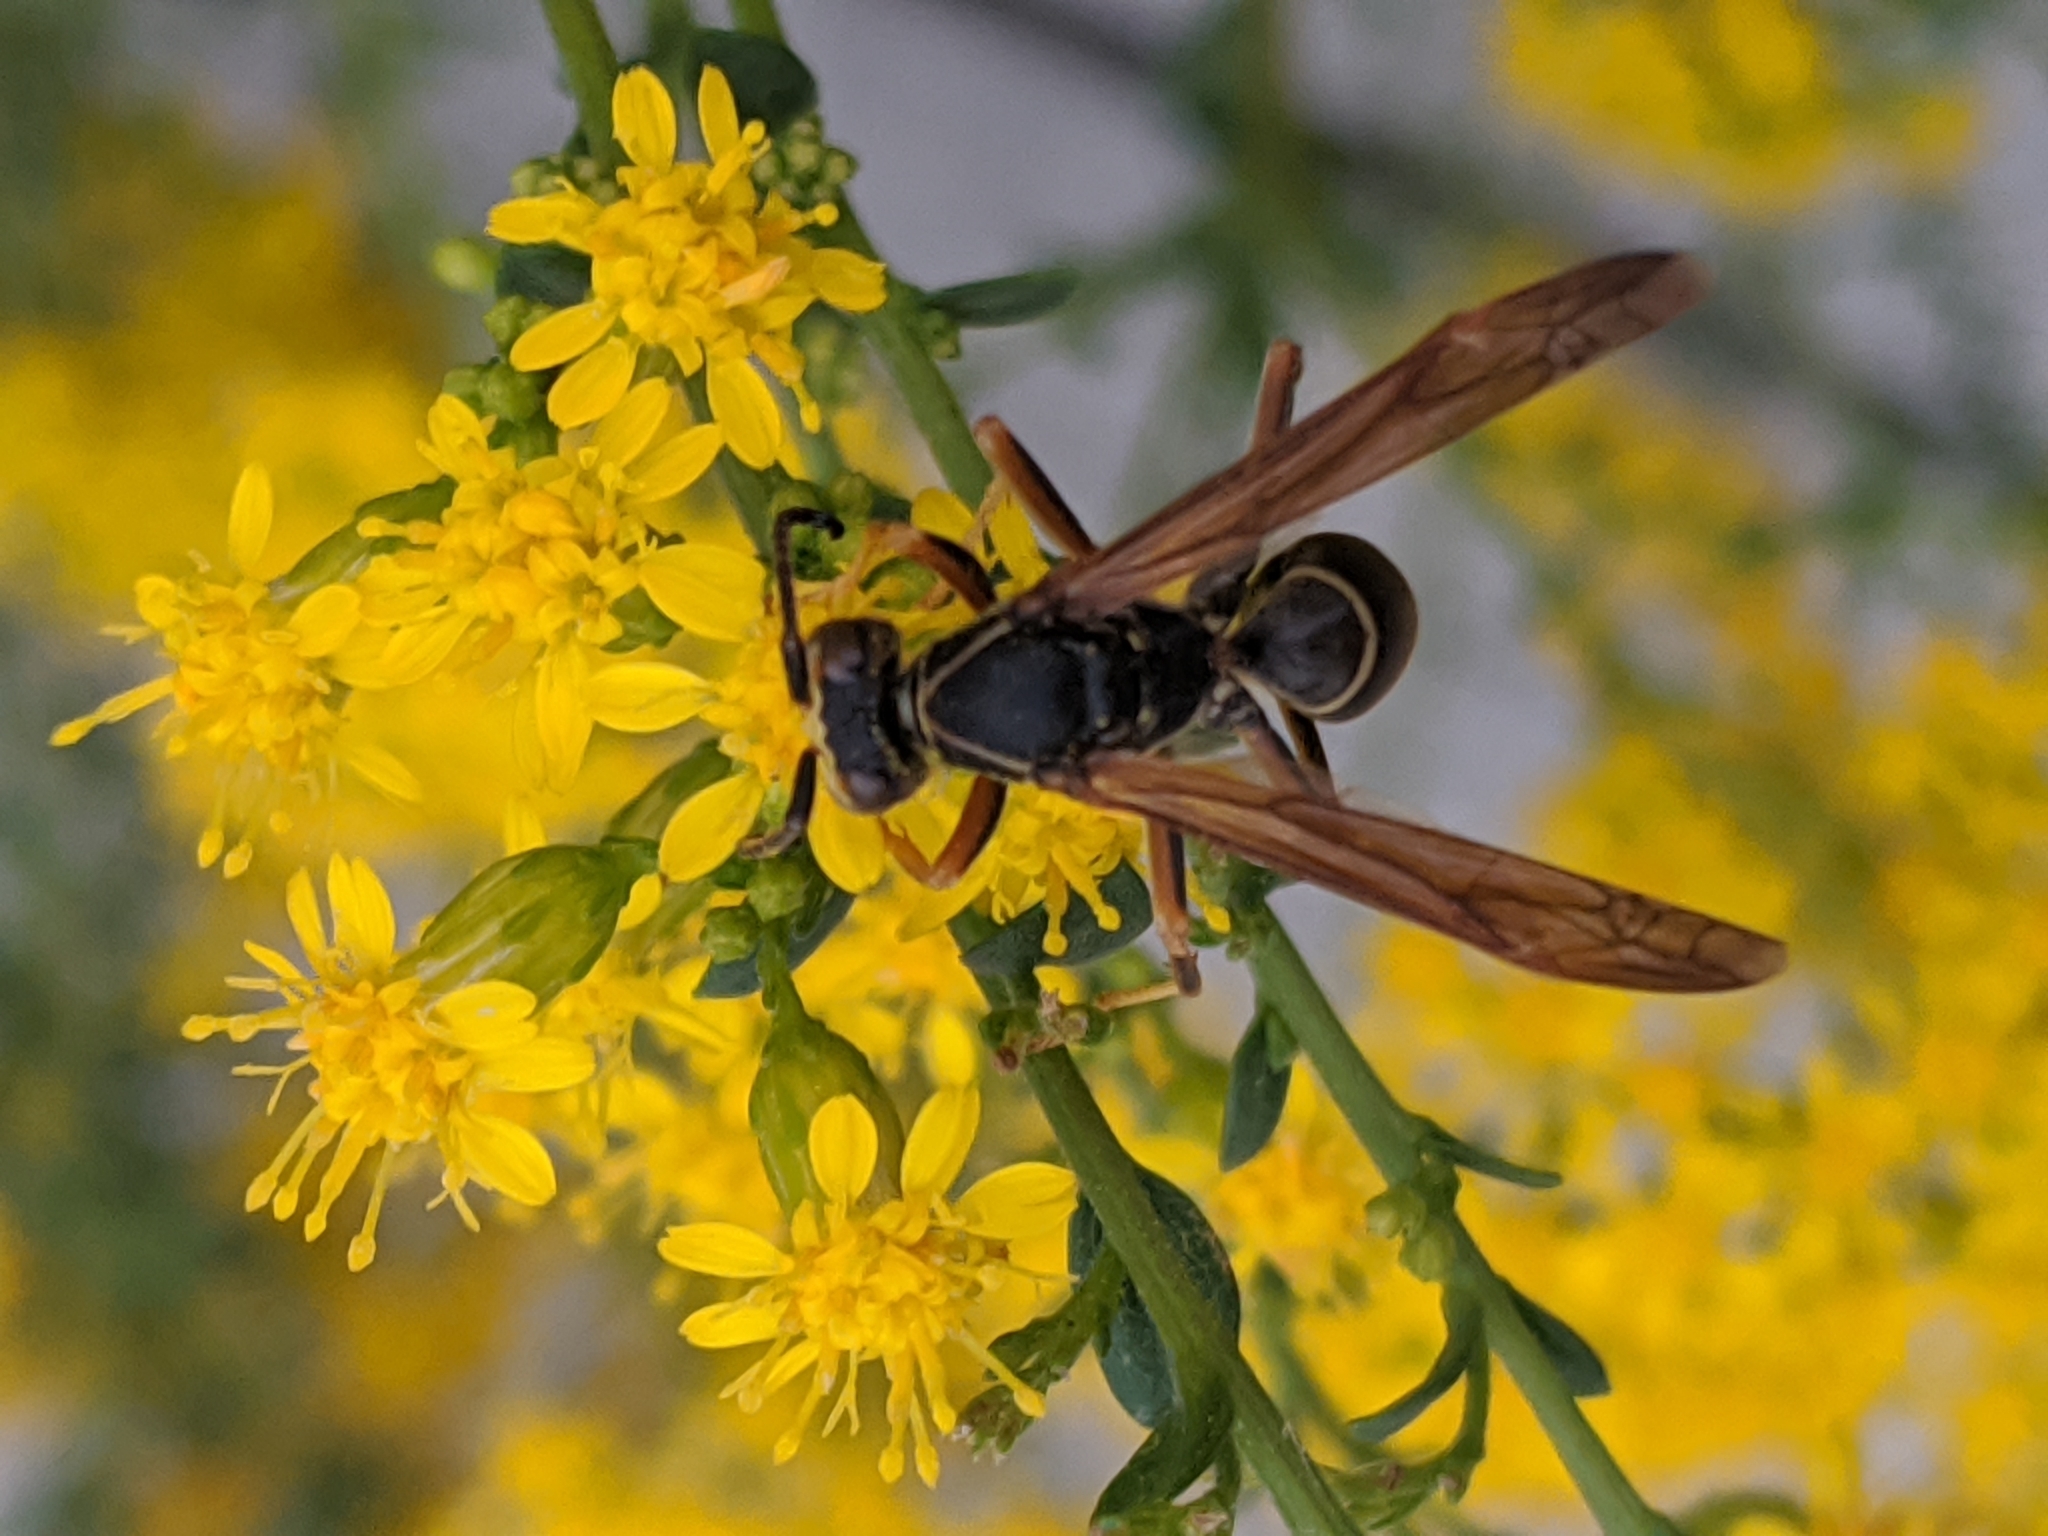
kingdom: Animalia
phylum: Arthropoda
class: Insecta
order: Hymenoptera
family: Eumenidae
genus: Polistes
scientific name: Polistes fuscatus
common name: Dark paper wasp
